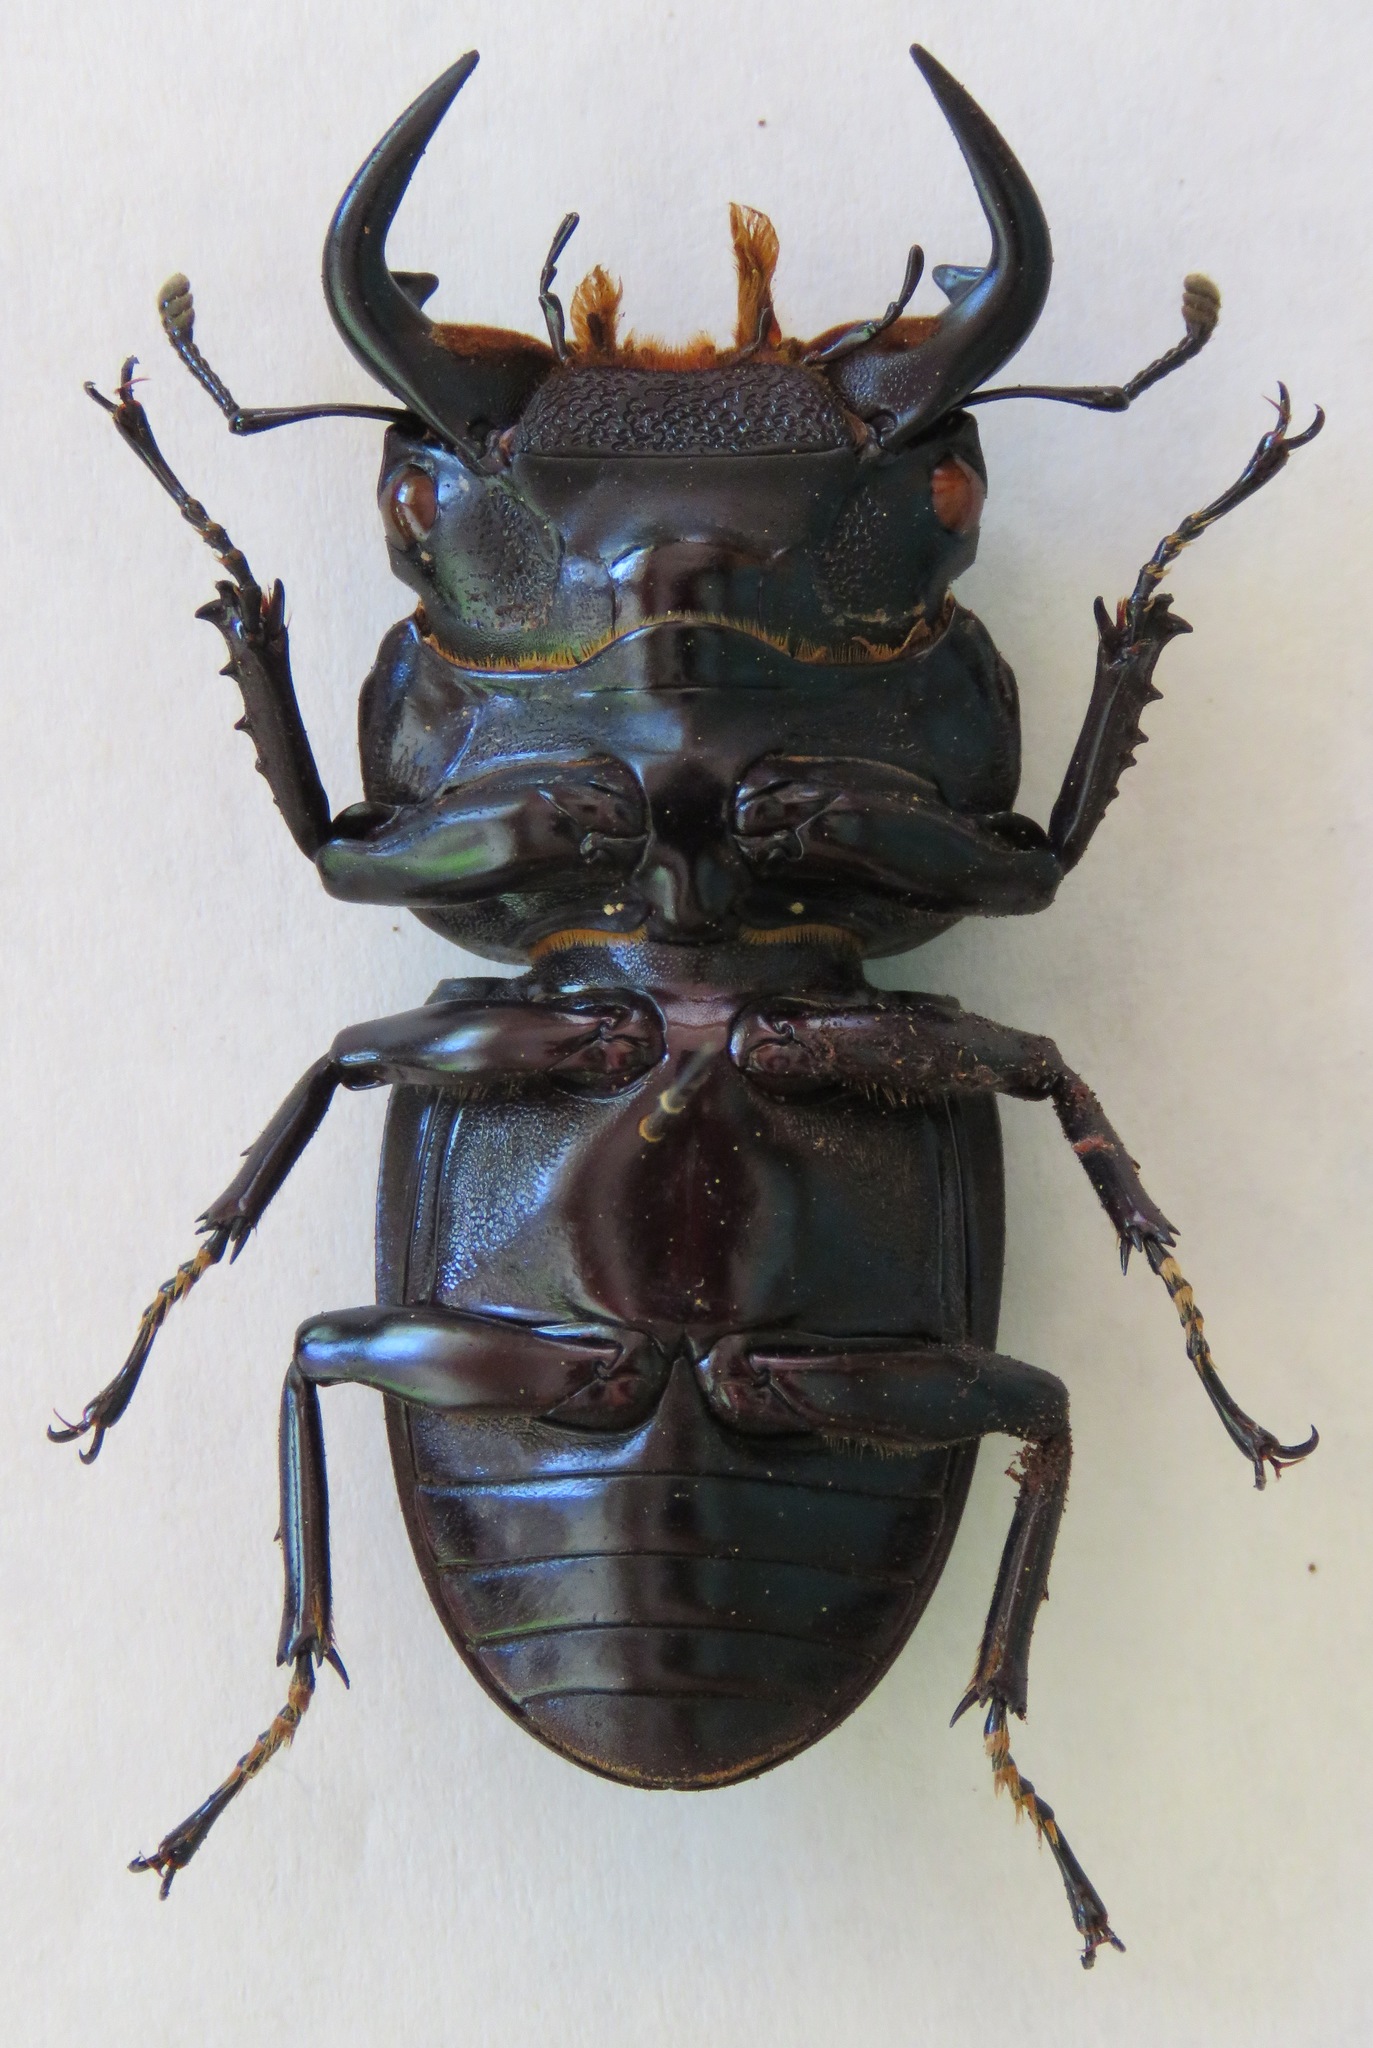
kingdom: Animalia
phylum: Arthropoda
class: Insecta
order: Coleoptera
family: Lucanidae
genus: Dorcus
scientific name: Dorcus antaeus
